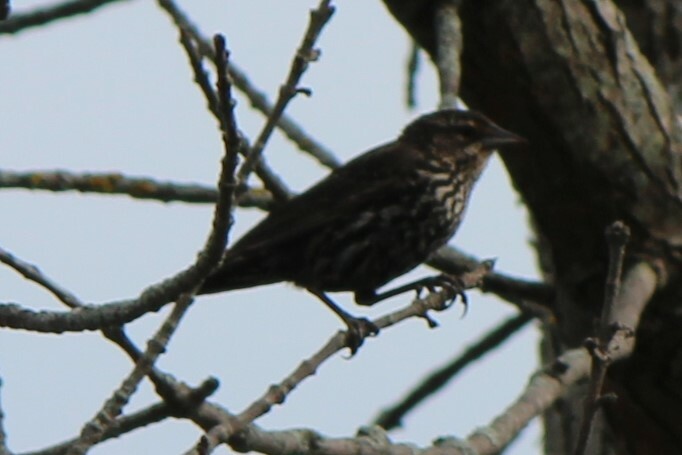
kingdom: Animalia
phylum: Chordata
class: Aves
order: Passeriformes
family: Icteridae
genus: Agelaius
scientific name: Agelaius phoeniceus
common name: Red-winged blackbird
